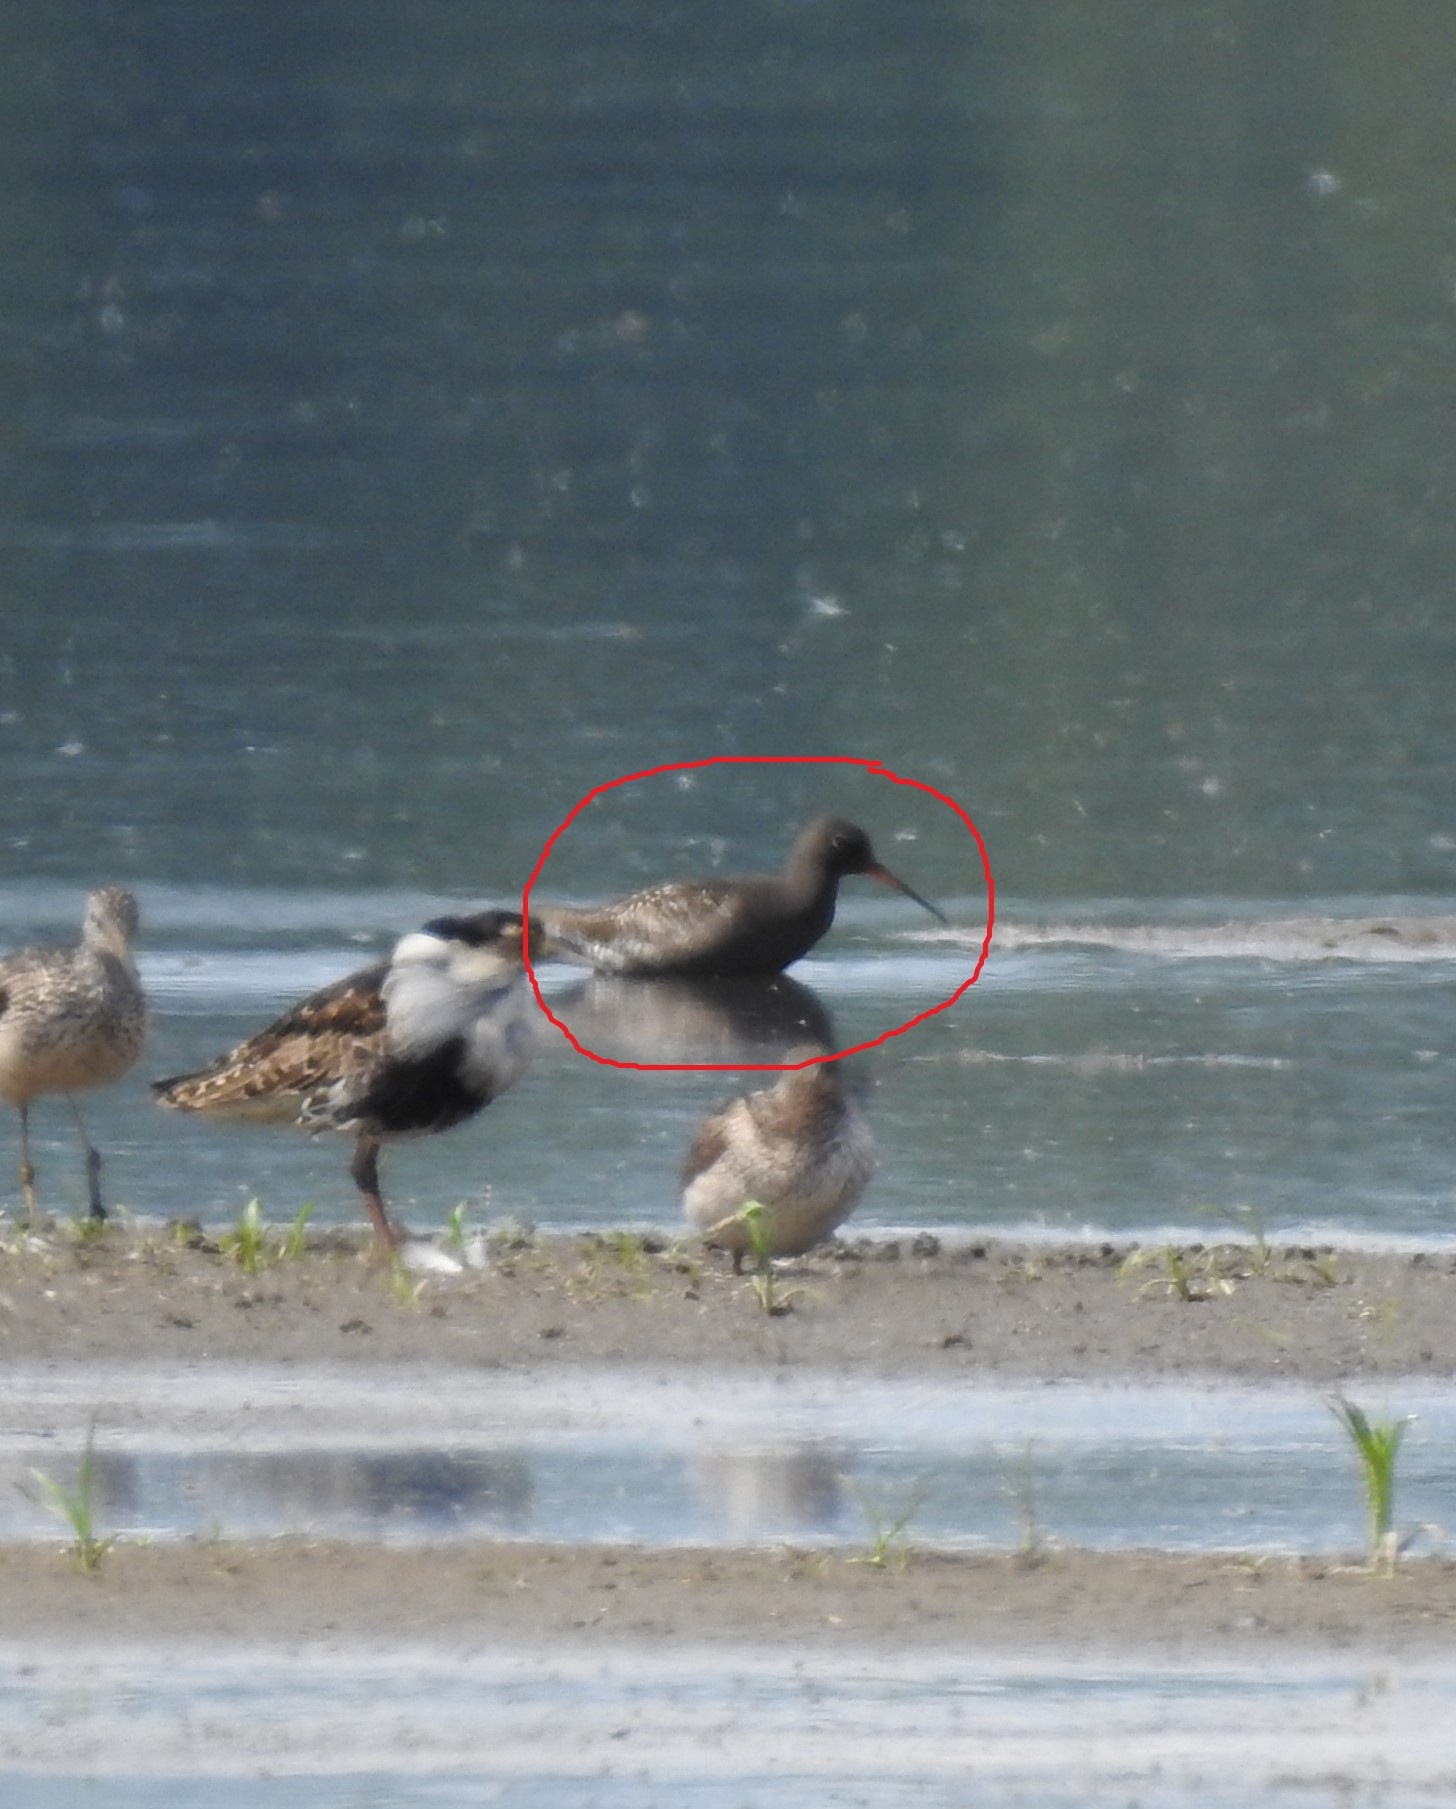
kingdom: Animalia
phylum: Chordata
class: Aves
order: Charadriiformes
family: Scolopacidae
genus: Tringa
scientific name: Tringa erythropus
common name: Spotted redshank
